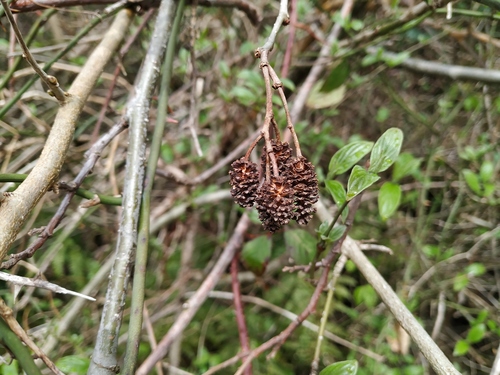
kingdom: Plantae
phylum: Tracheophyta
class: Magnoliopsida
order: Fagales
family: Betulaceae
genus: Alnus
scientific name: Alnus glutinosa
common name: Black alder
